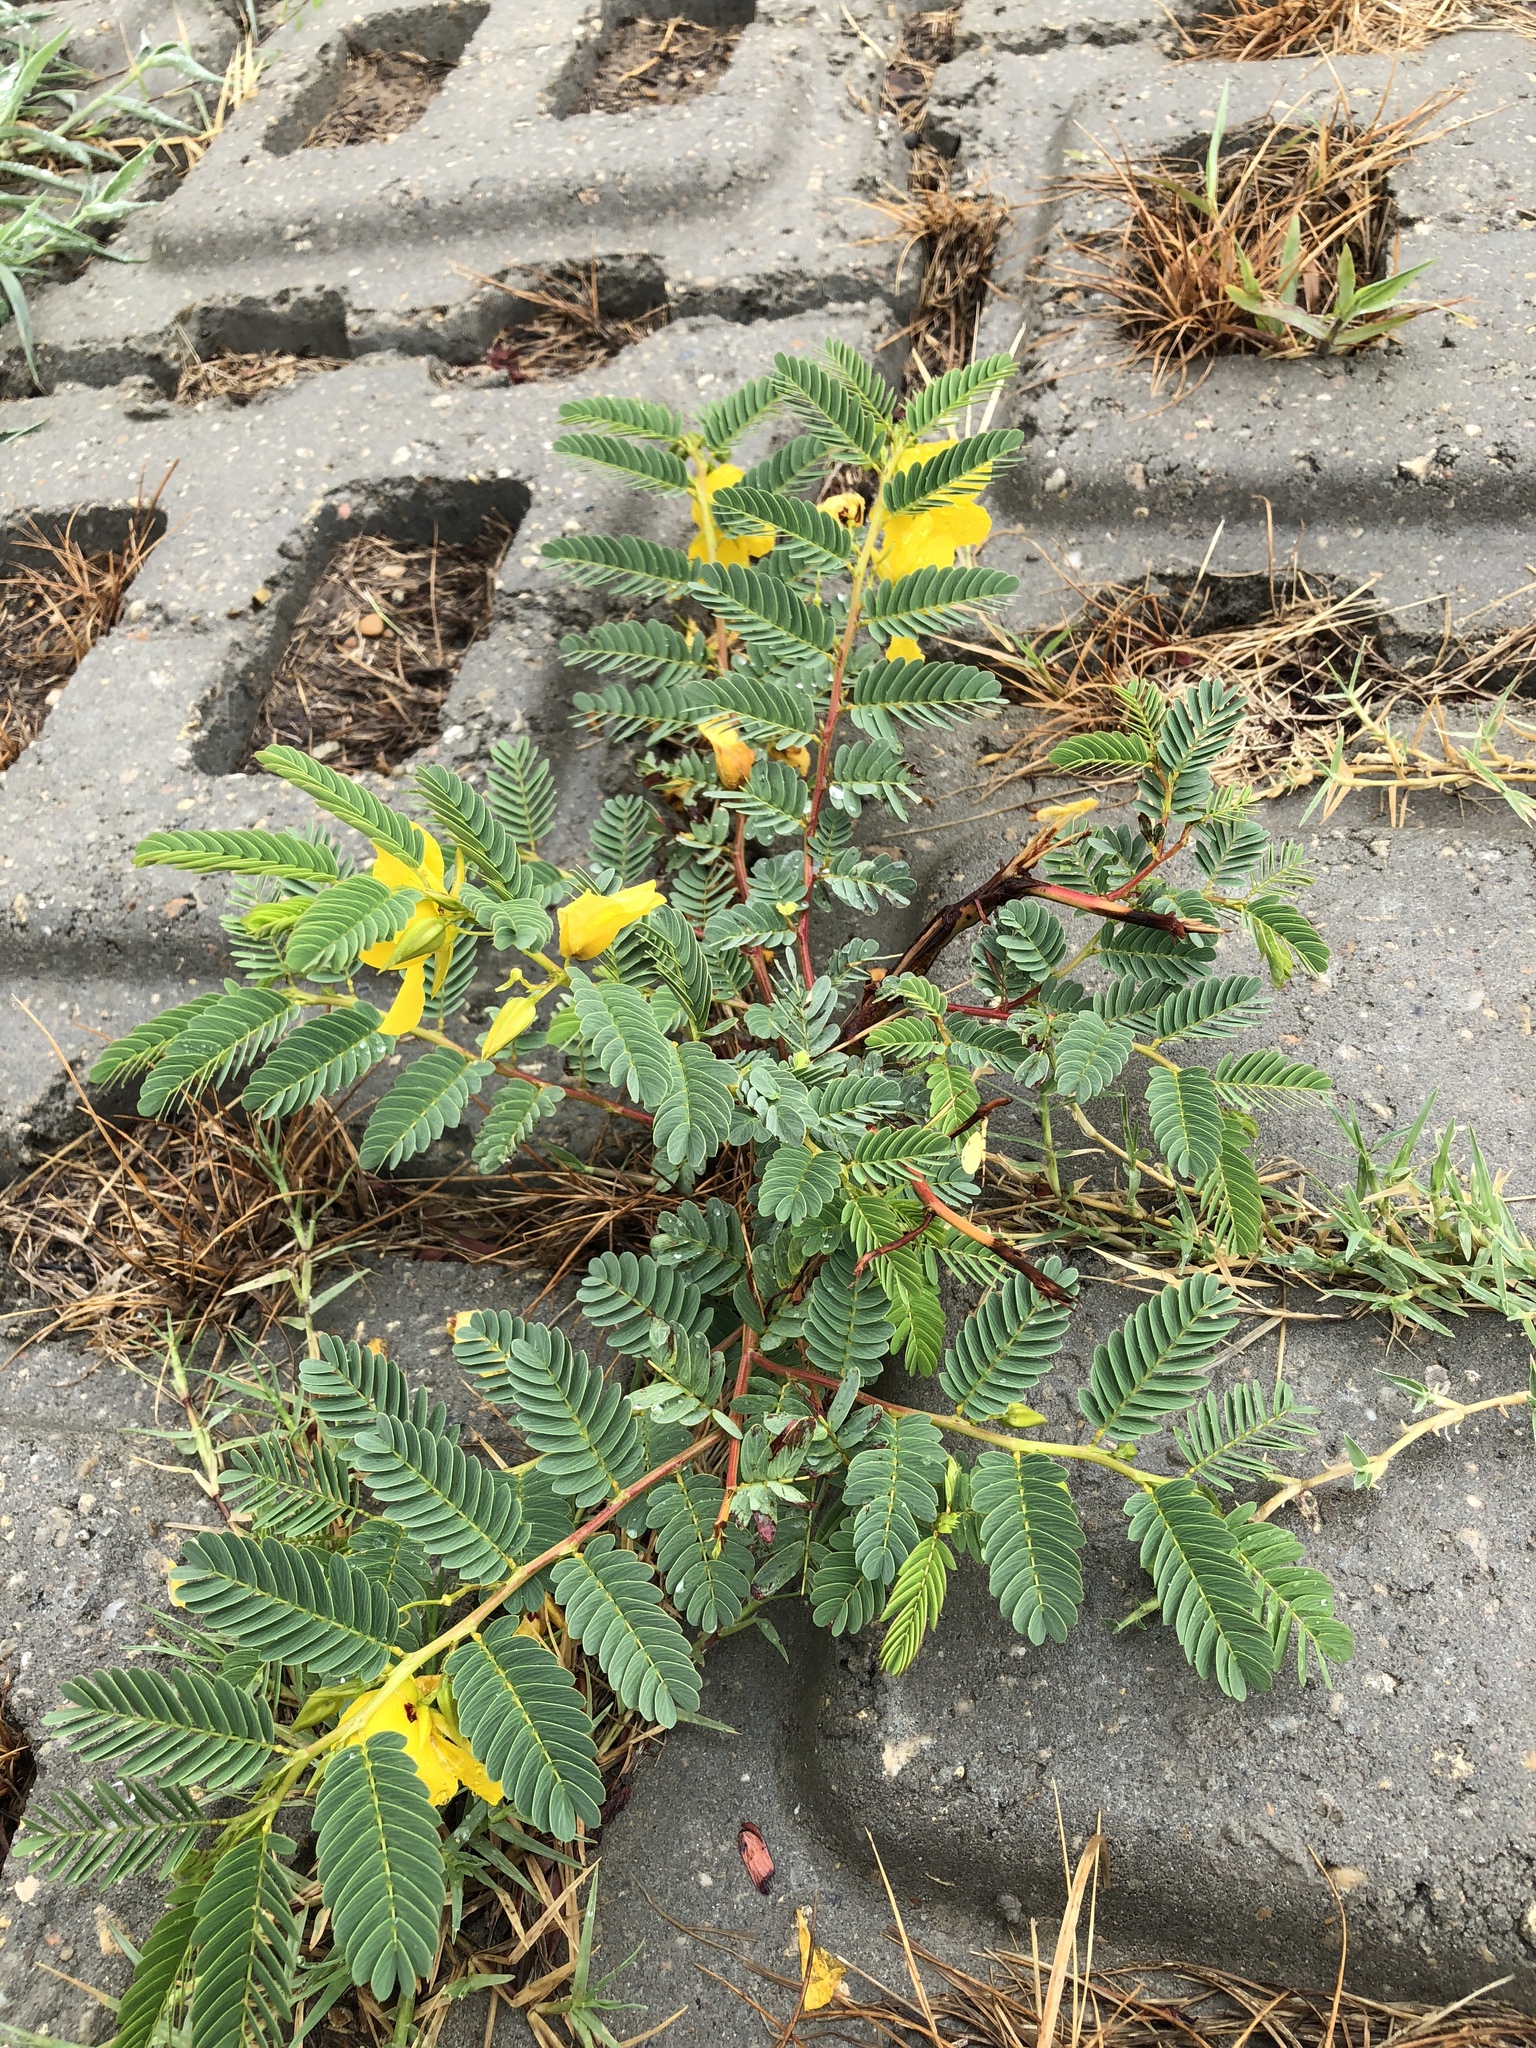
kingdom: Plantae
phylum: Tracheophyta
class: Magnoliopsida
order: Fabales
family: Fabaceae
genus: Chamaecrista
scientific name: Chamaecrista fasciculata
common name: Golden cassia
